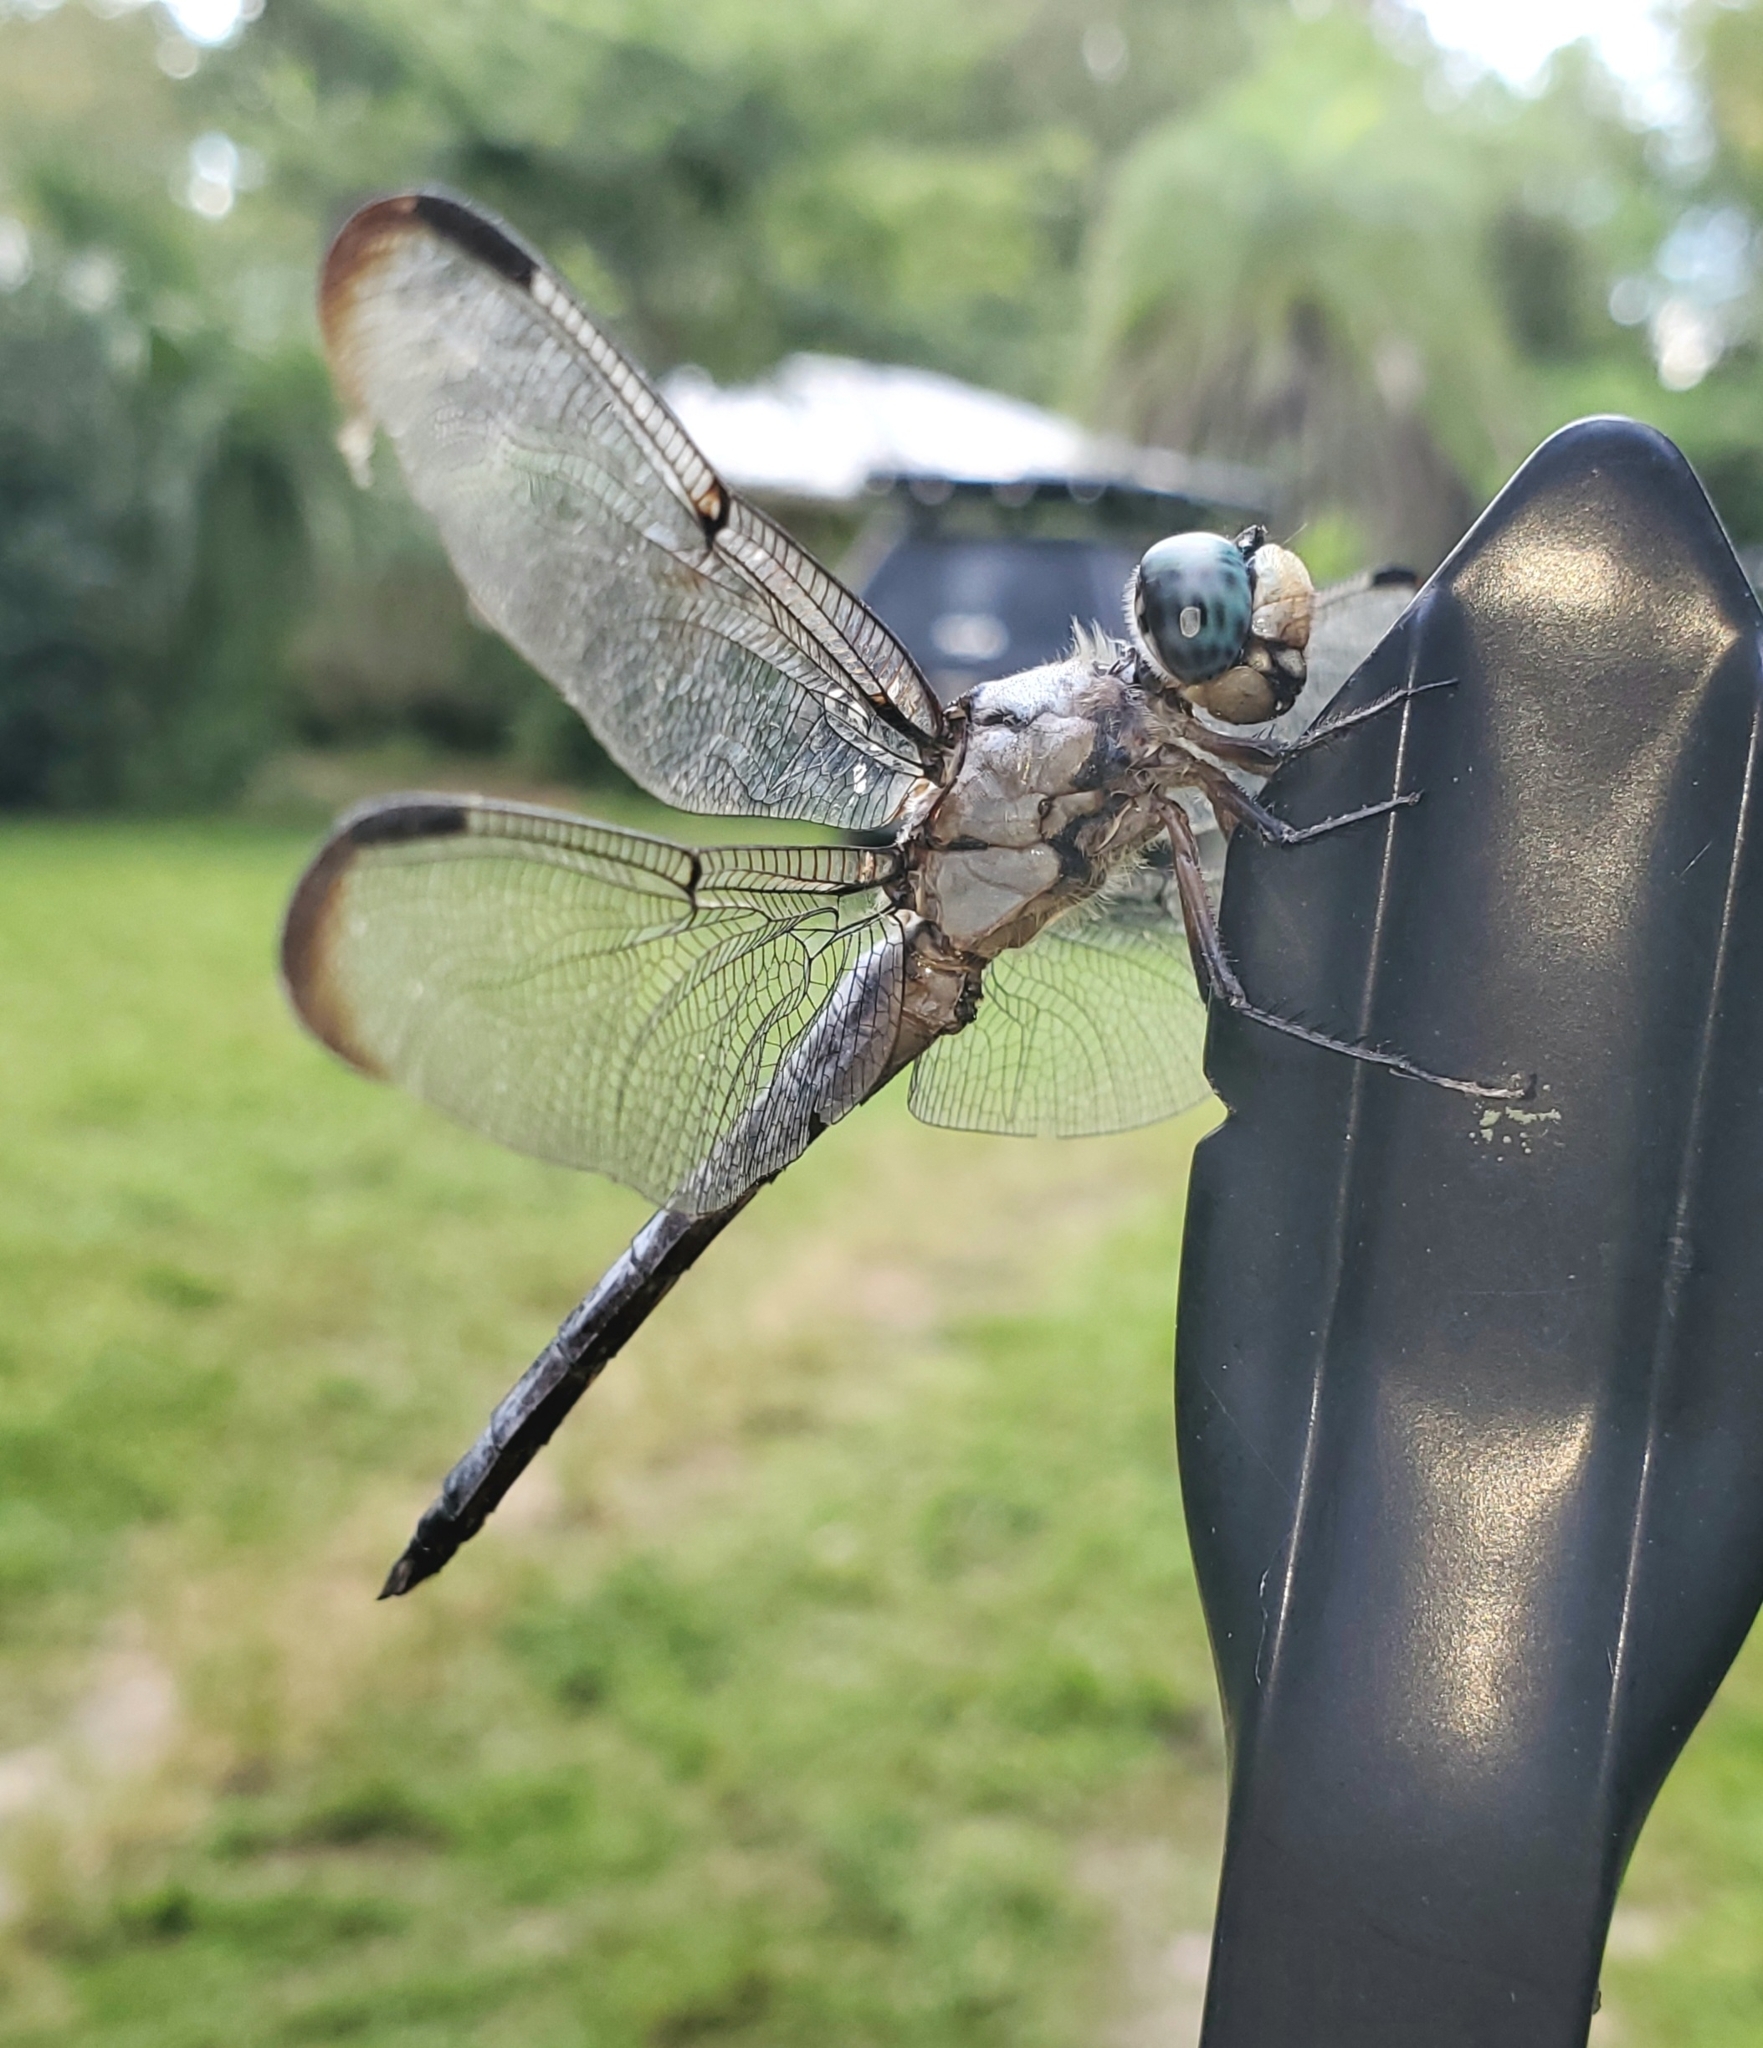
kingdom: Animalia
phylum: Arthropoda
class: Insecta
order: Odonata
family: Libellulidae
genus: Libellula
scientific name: Libellula vibrans
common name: Great blue skimmer
